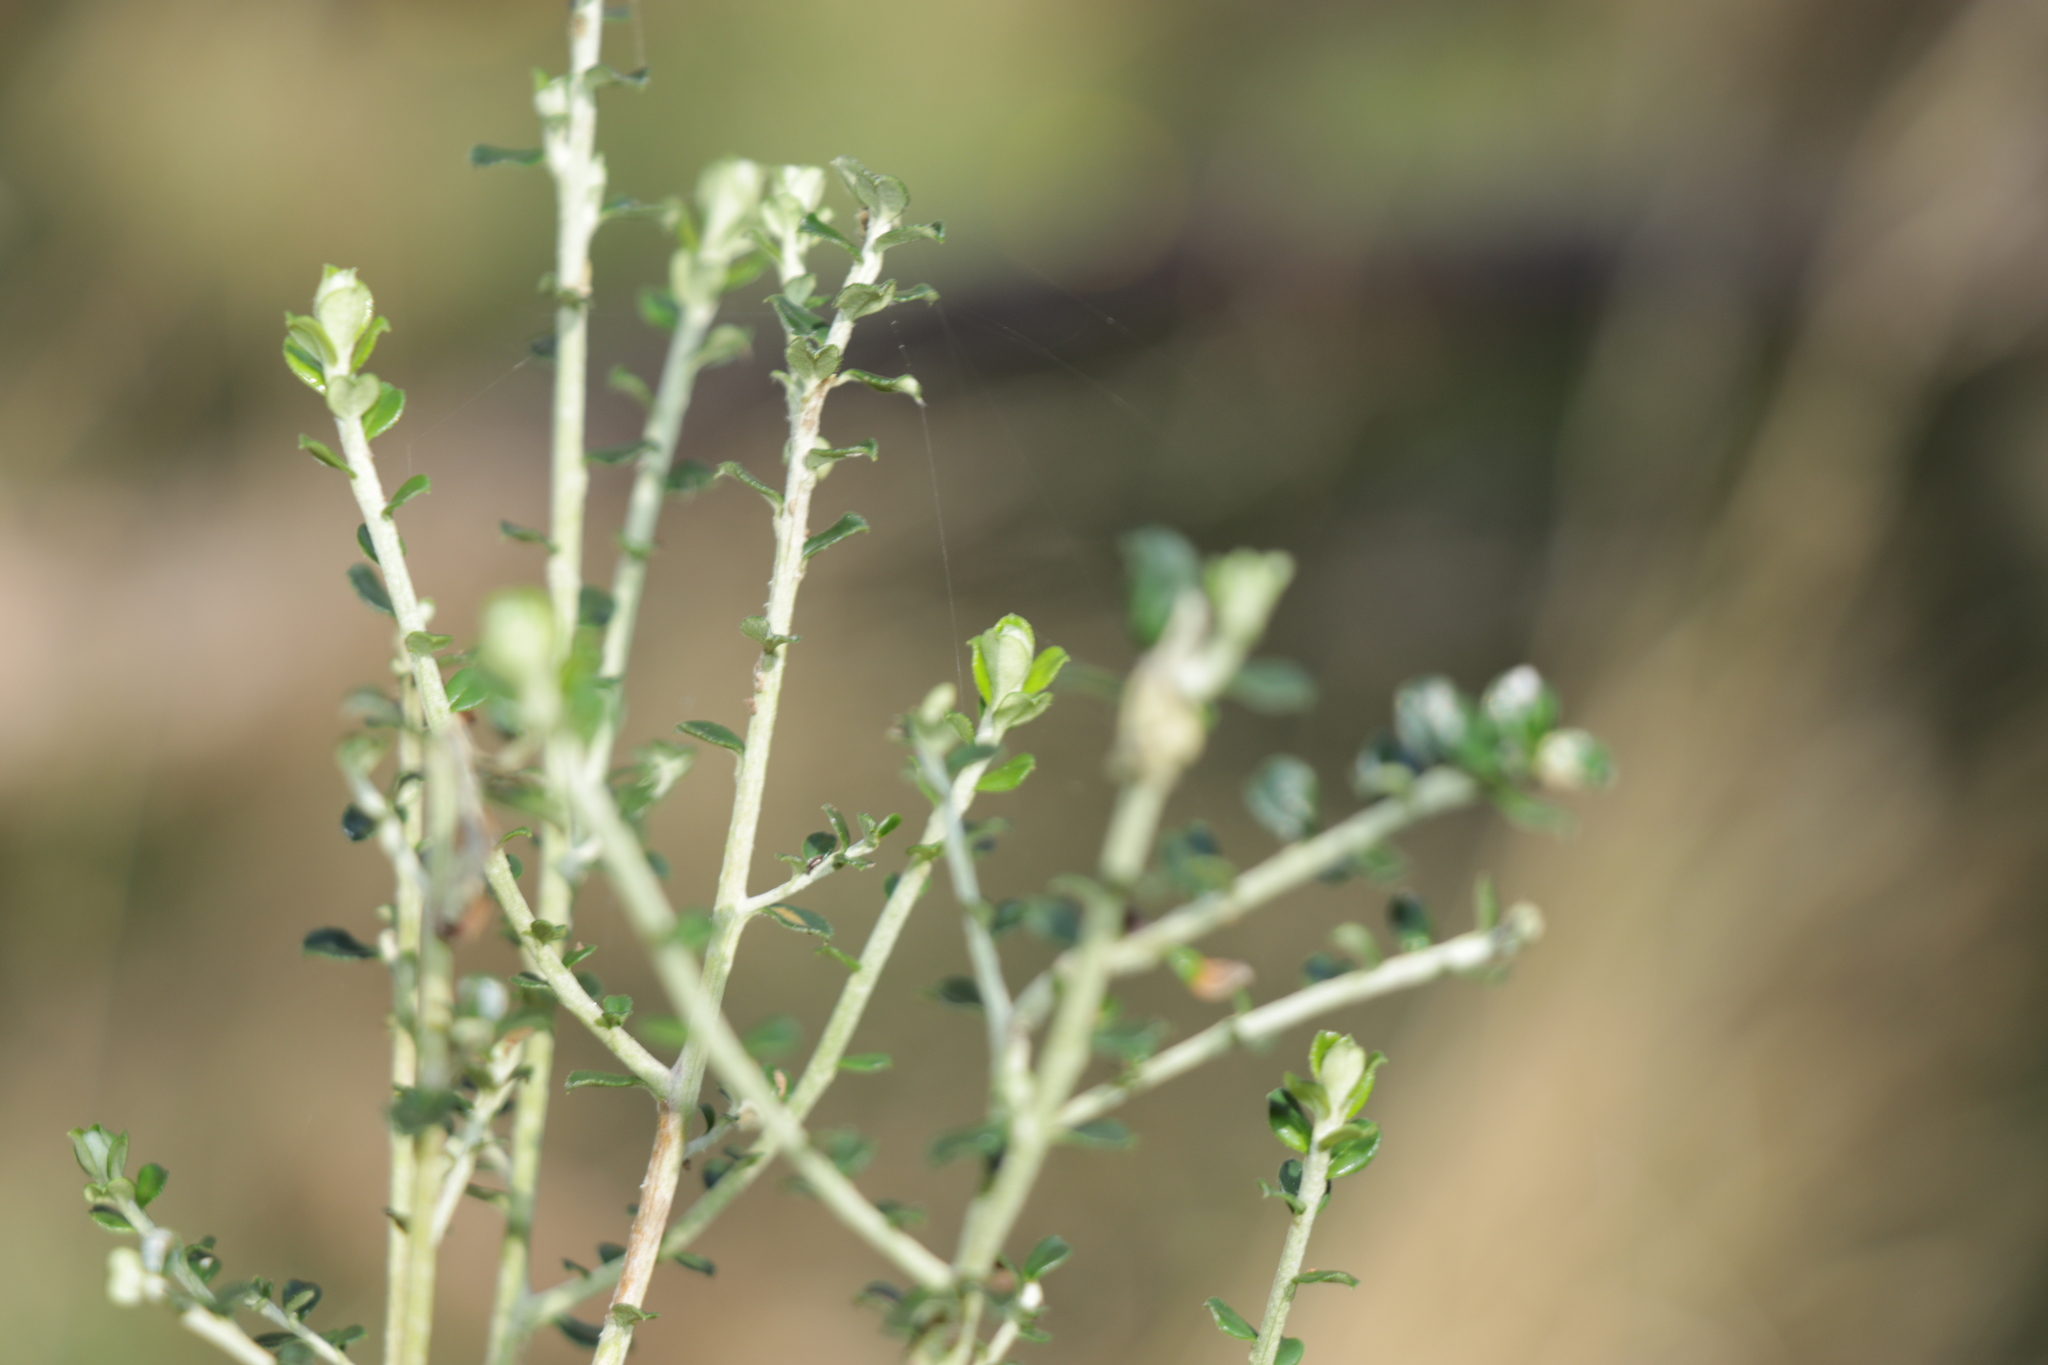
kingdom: Plantae
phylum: Tracheophyta
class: Magnoliopsida
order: Asterales
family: Asteraceae
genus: Ozothamnus
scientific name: Ozothamnus obcordatus
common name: Grey everlasting
